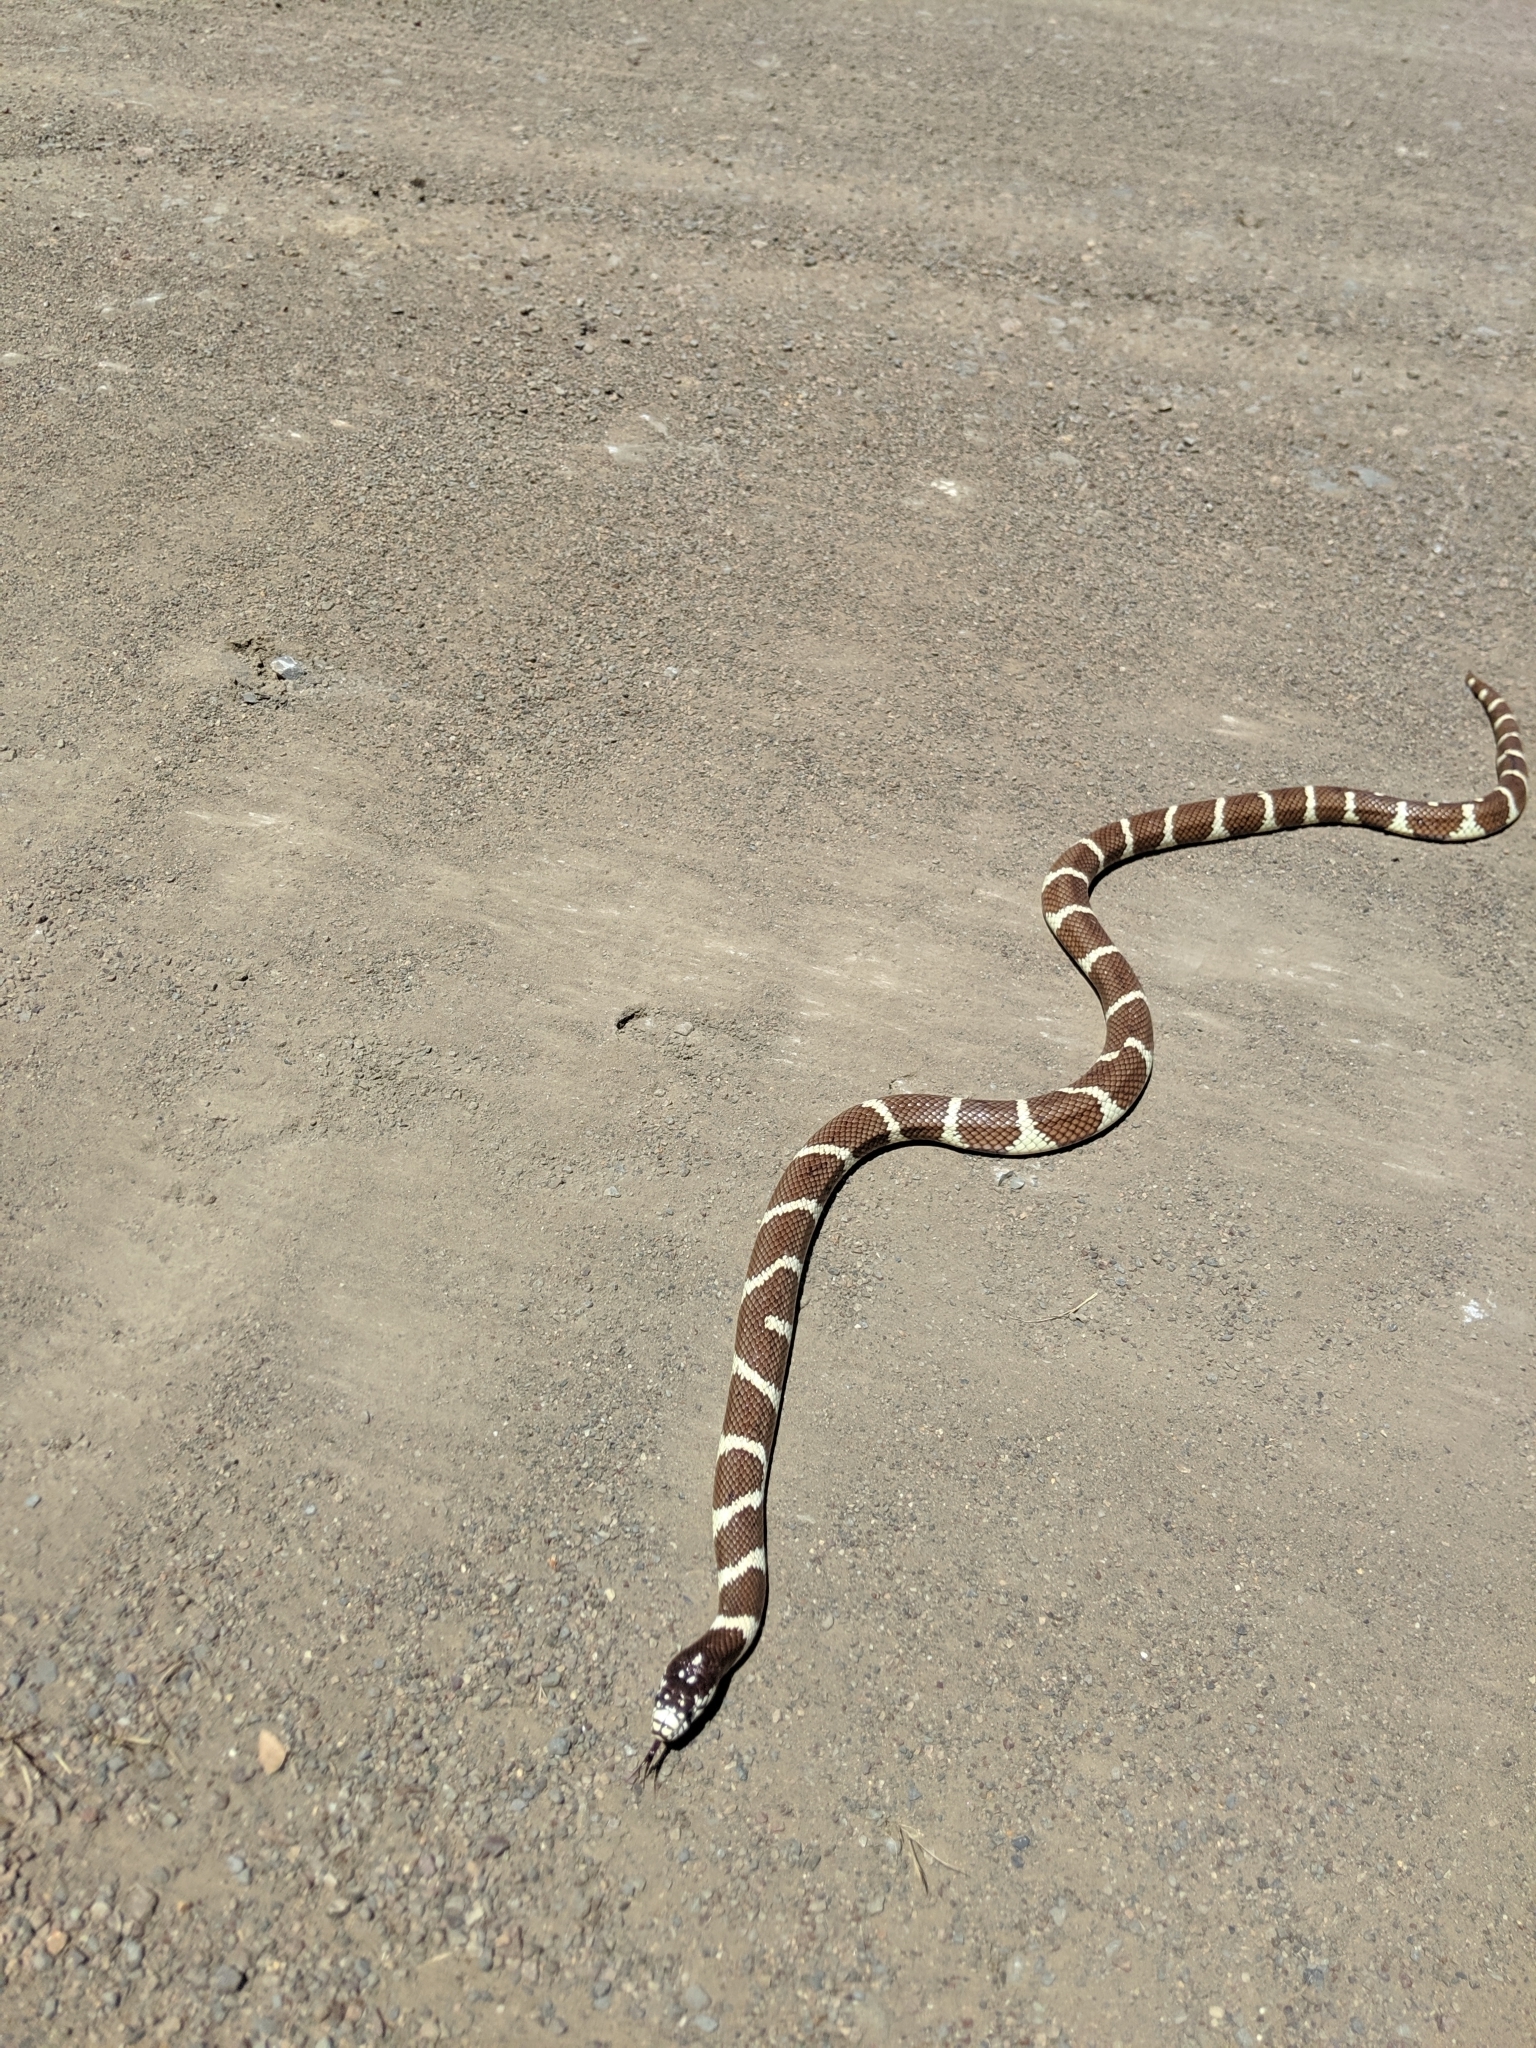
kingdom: Animalia
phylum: Chordata
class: Squamata
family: Colubridae
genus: Lampropeltis
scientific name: Lampropeltis californiae
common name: California kingsnake
